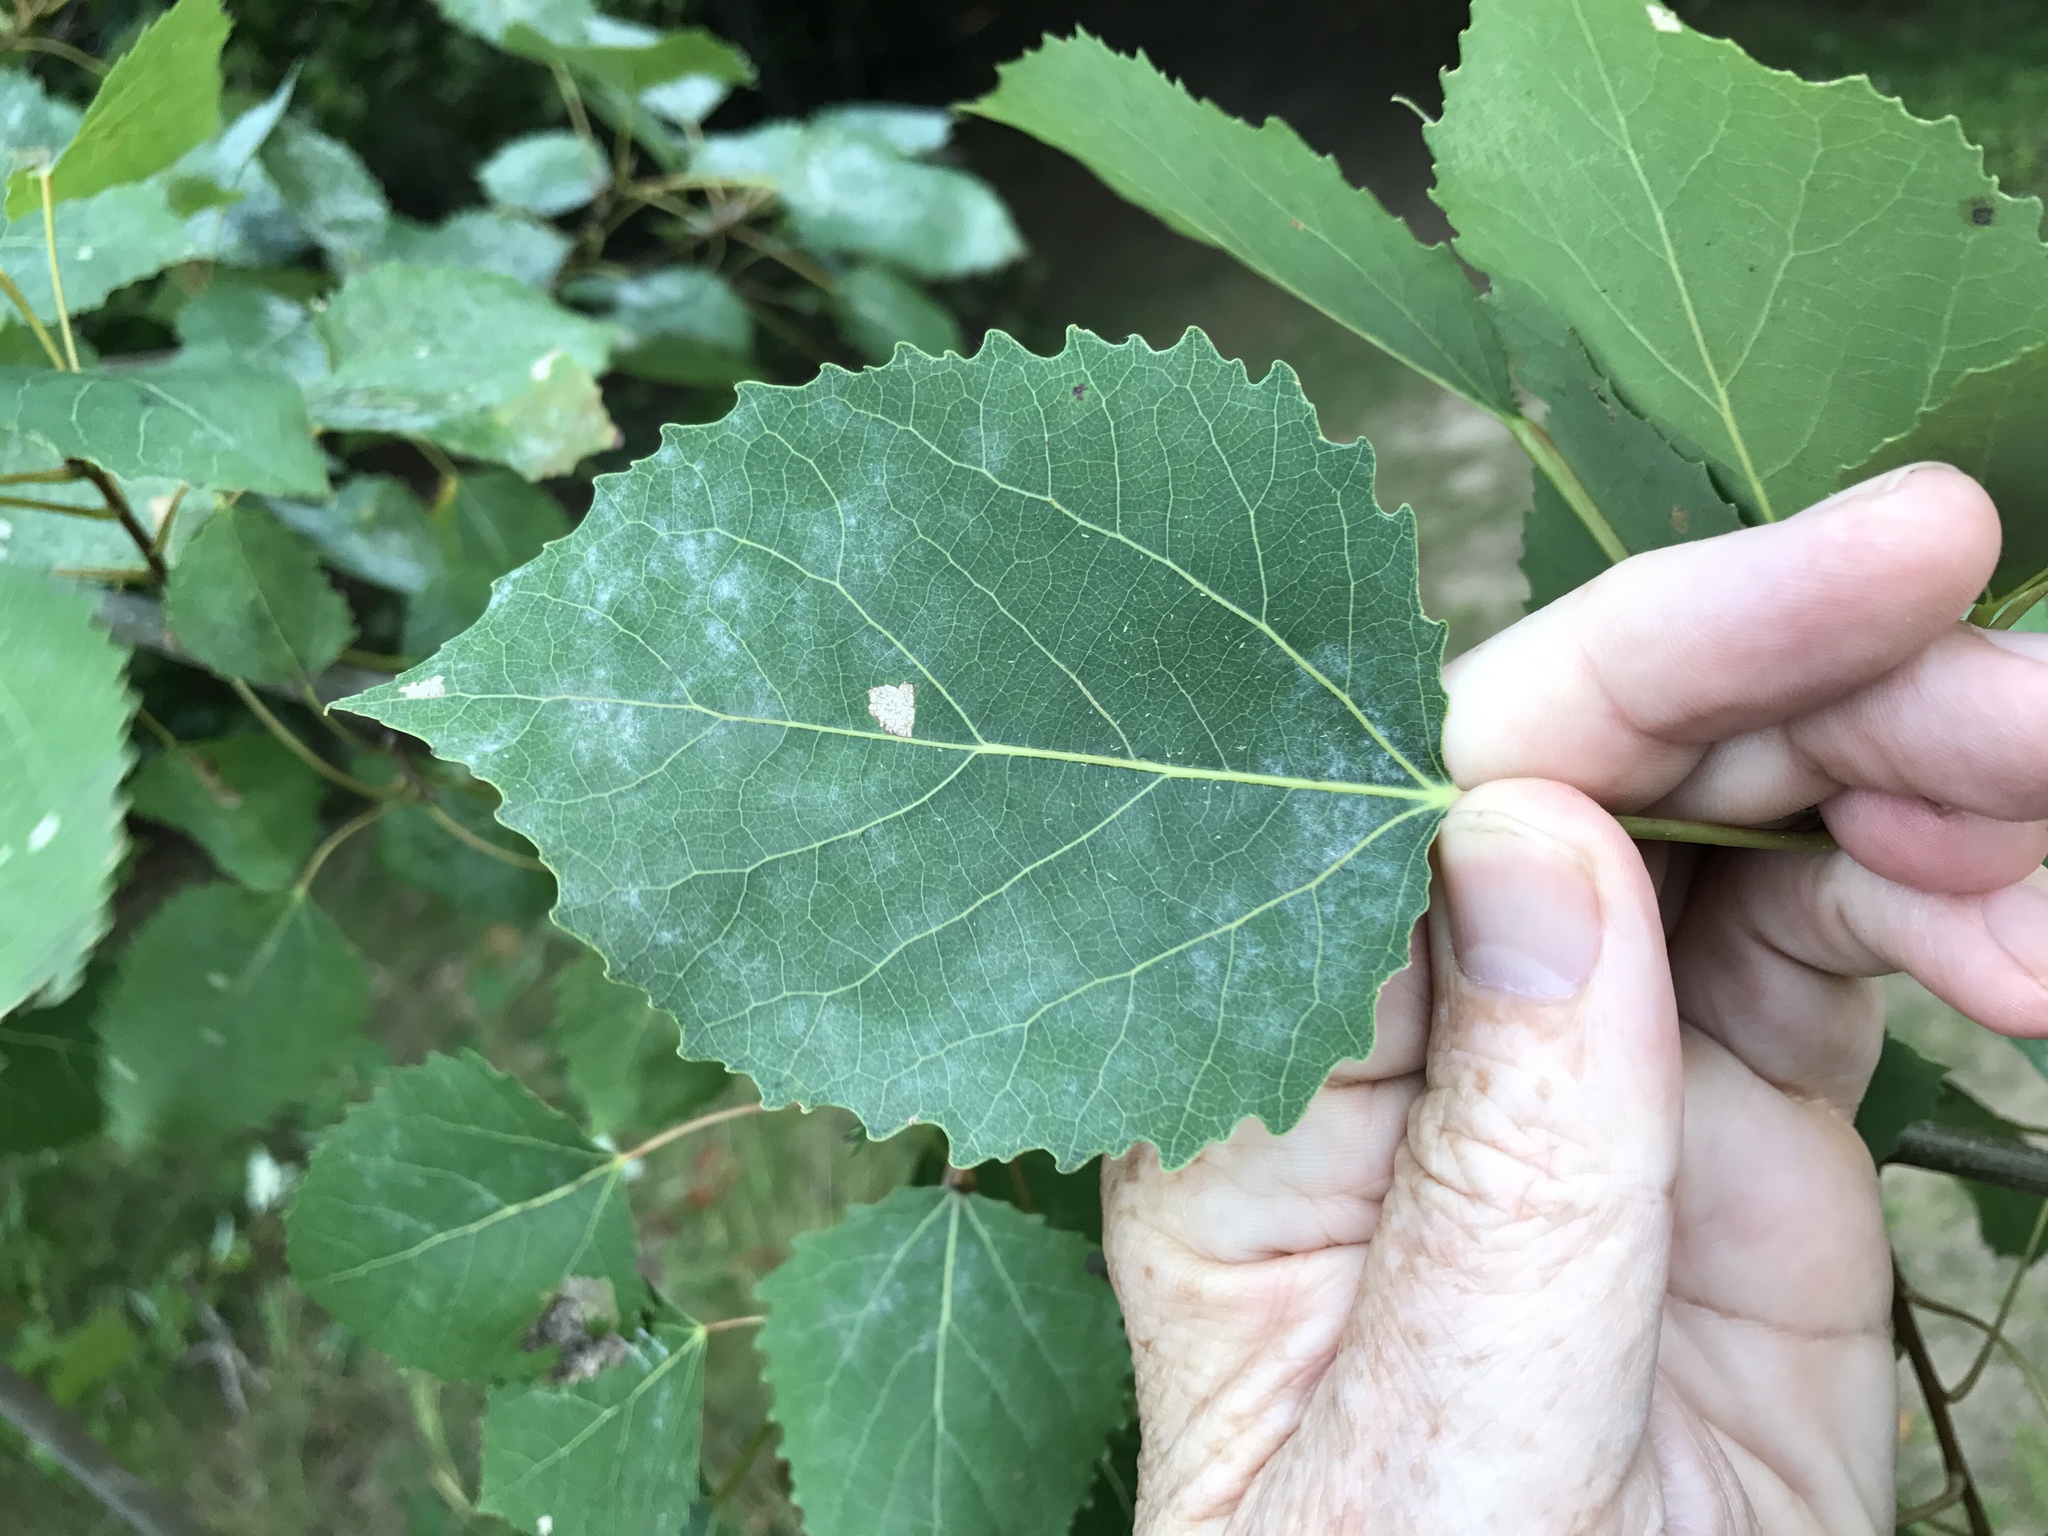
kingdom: Plantae
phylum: Tracheophyta
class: Magnoliopsida
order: Malpighiales
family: Salicaceae
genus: Populus
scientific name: Populus grandidentata
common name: Bigtooth aspen
